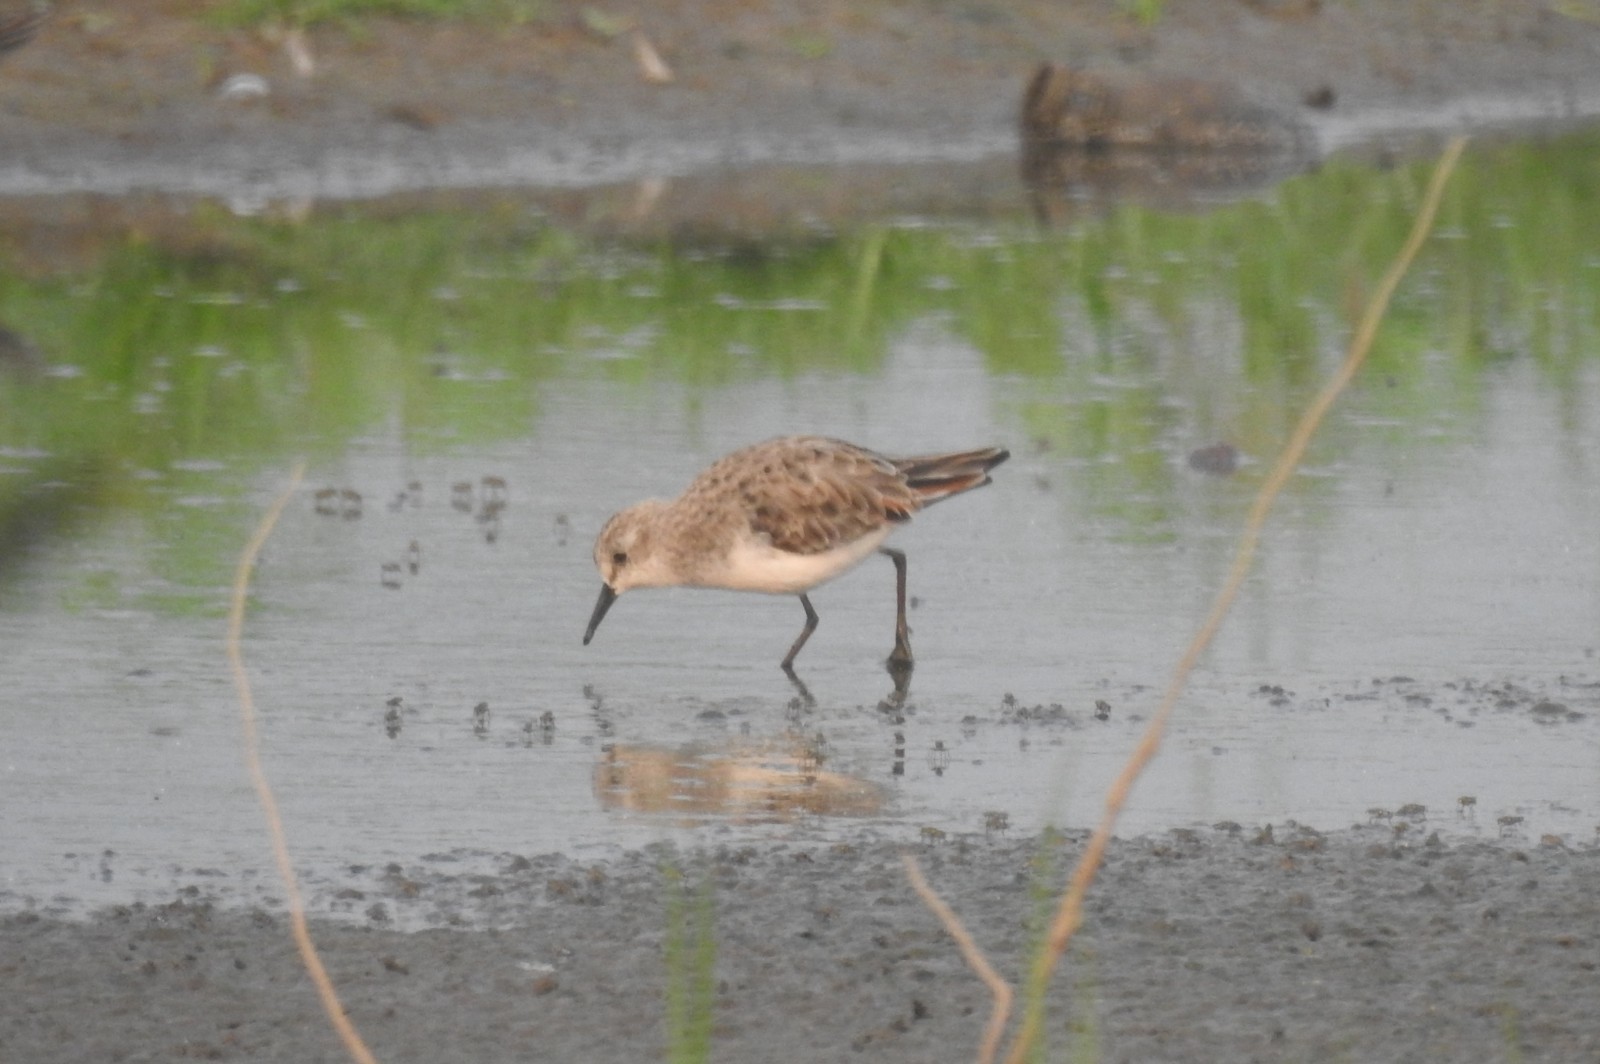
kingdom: Animalia
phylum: Chordata
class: Aves
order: Charadriiformes
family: Scolopacidae
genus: Calidris
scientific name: Calidris minuta
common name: Little stint
